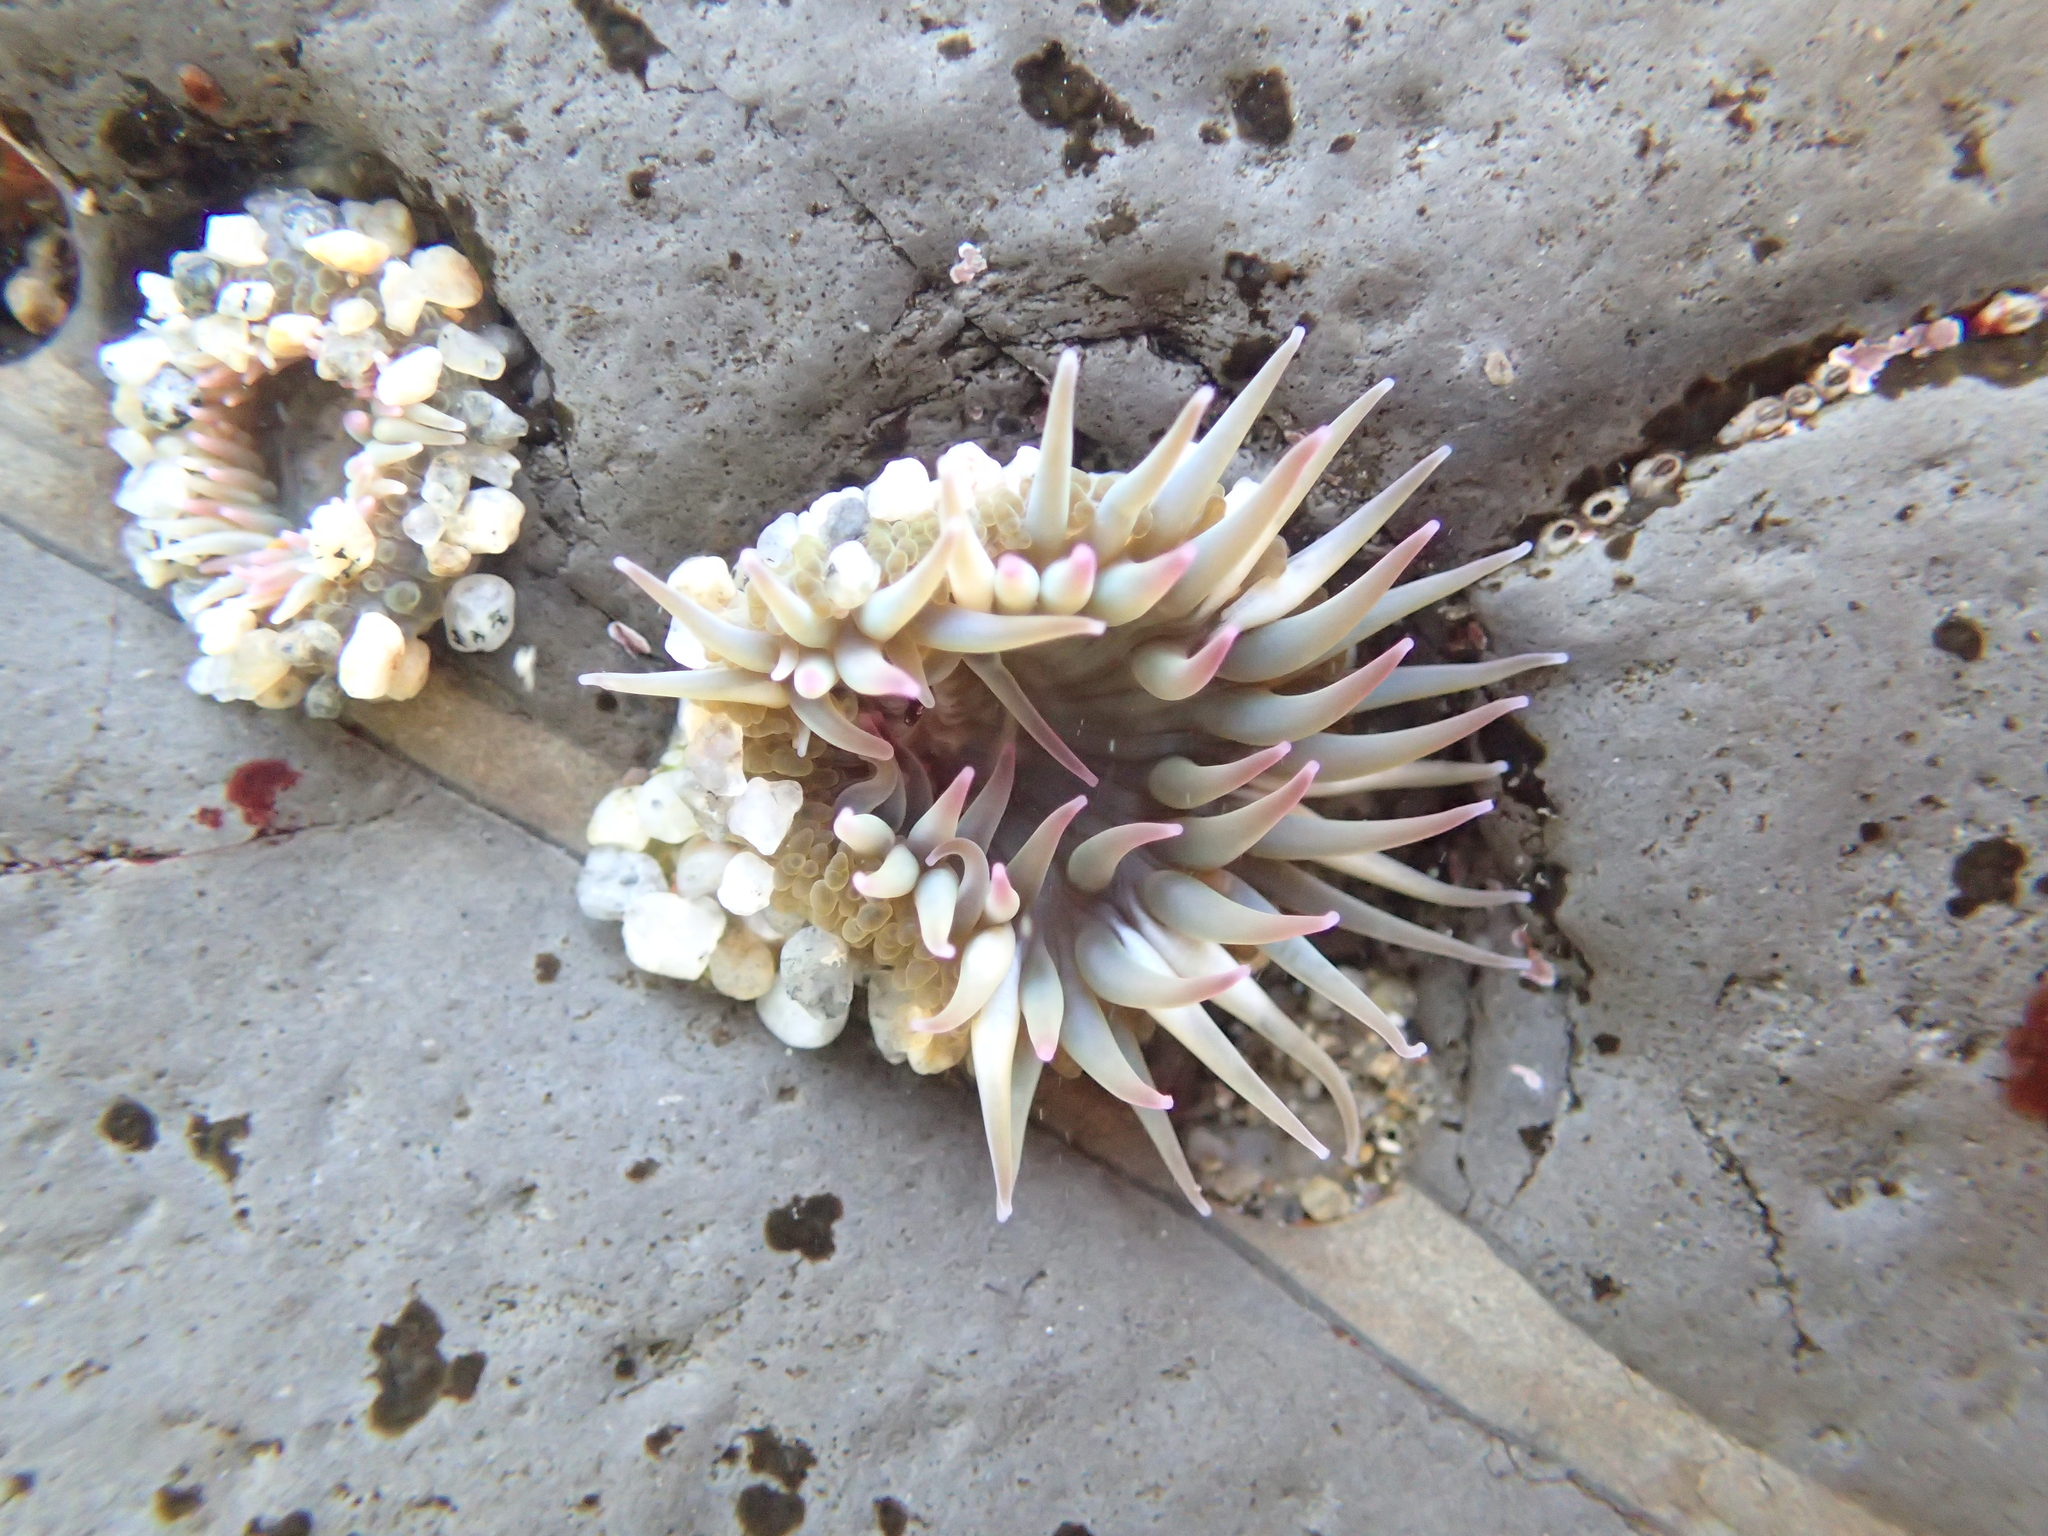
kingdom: Animalia
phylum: Cnidaria
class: Anthozoa
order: Actiniaria
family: Actiniidae
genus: Anthopleura
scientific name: Anthopleura elegantissima
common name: Clonal anemone
